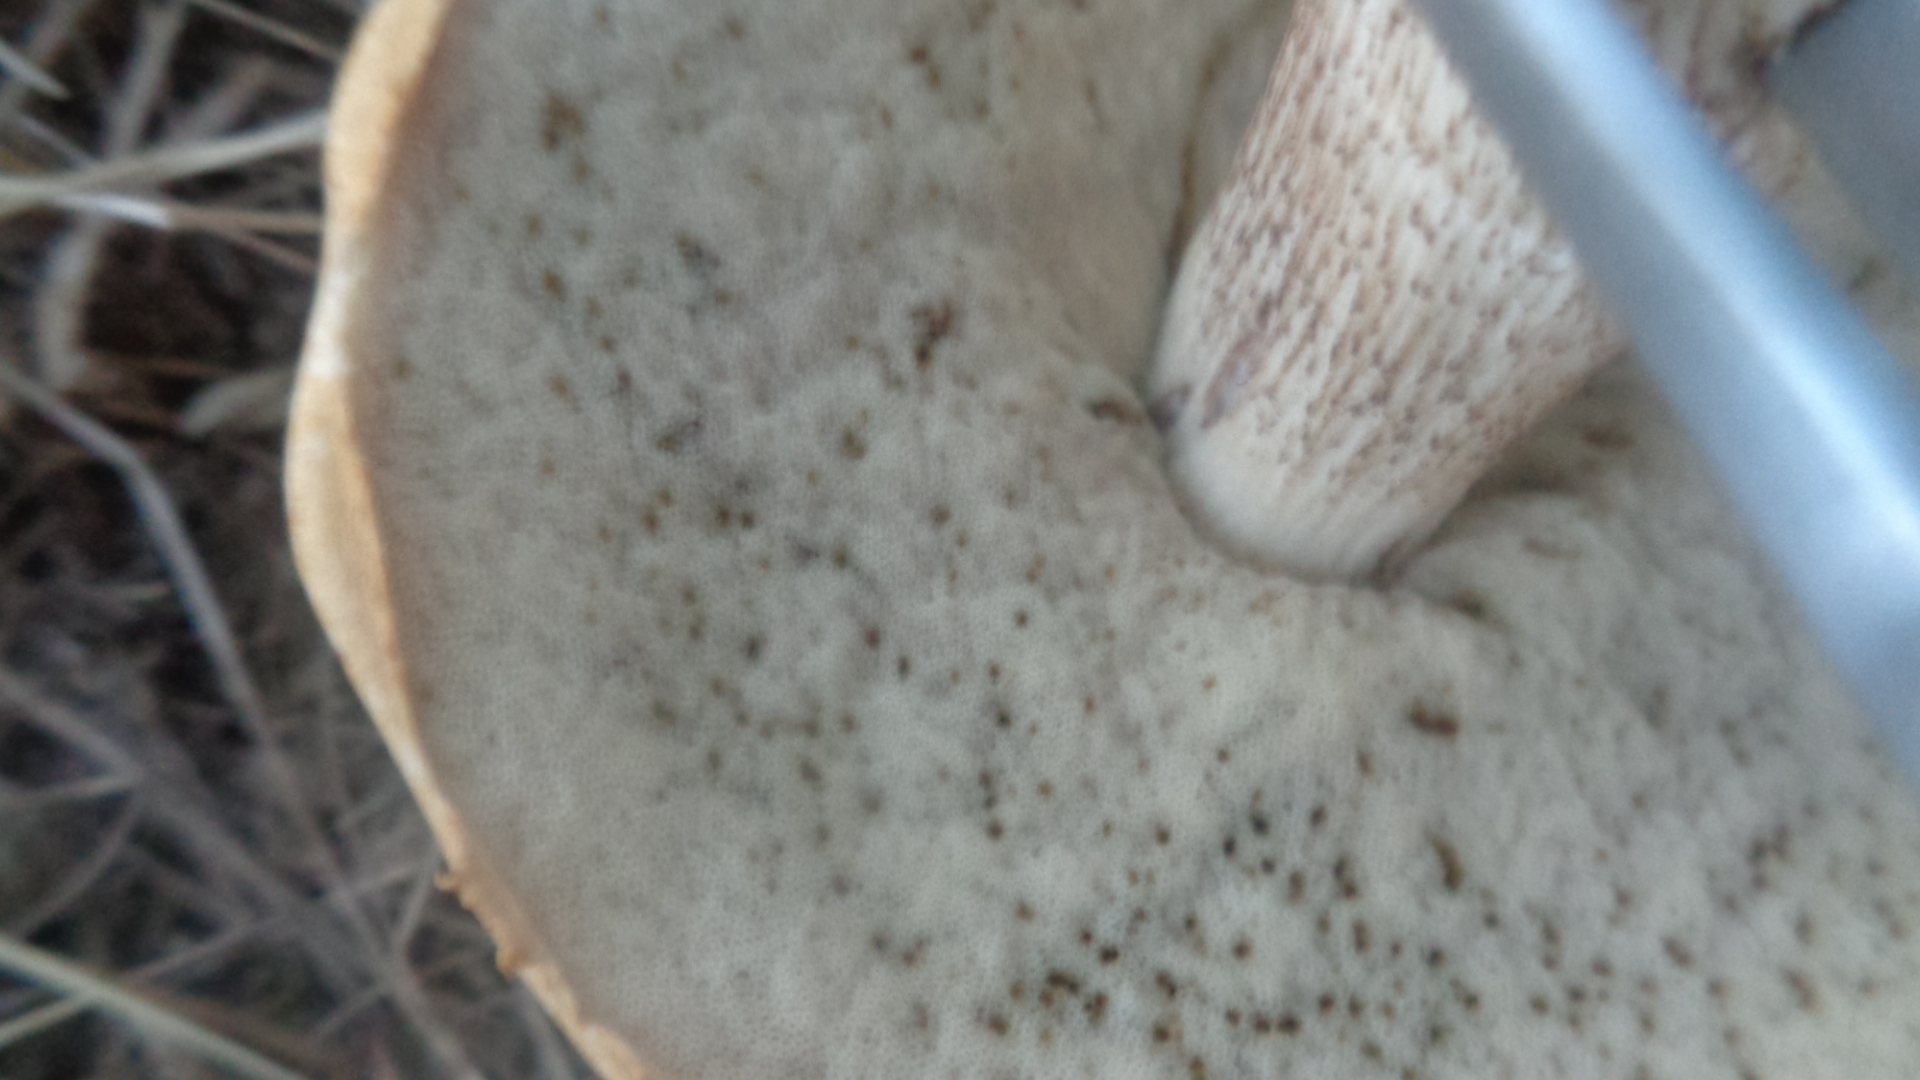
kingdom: Fungi
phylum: Basidiomycota
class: Agaricomycetes
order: Boletales
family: Boletaceae
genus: Leccinum
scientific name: Leccinum scabrum
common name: Blushing bolete
